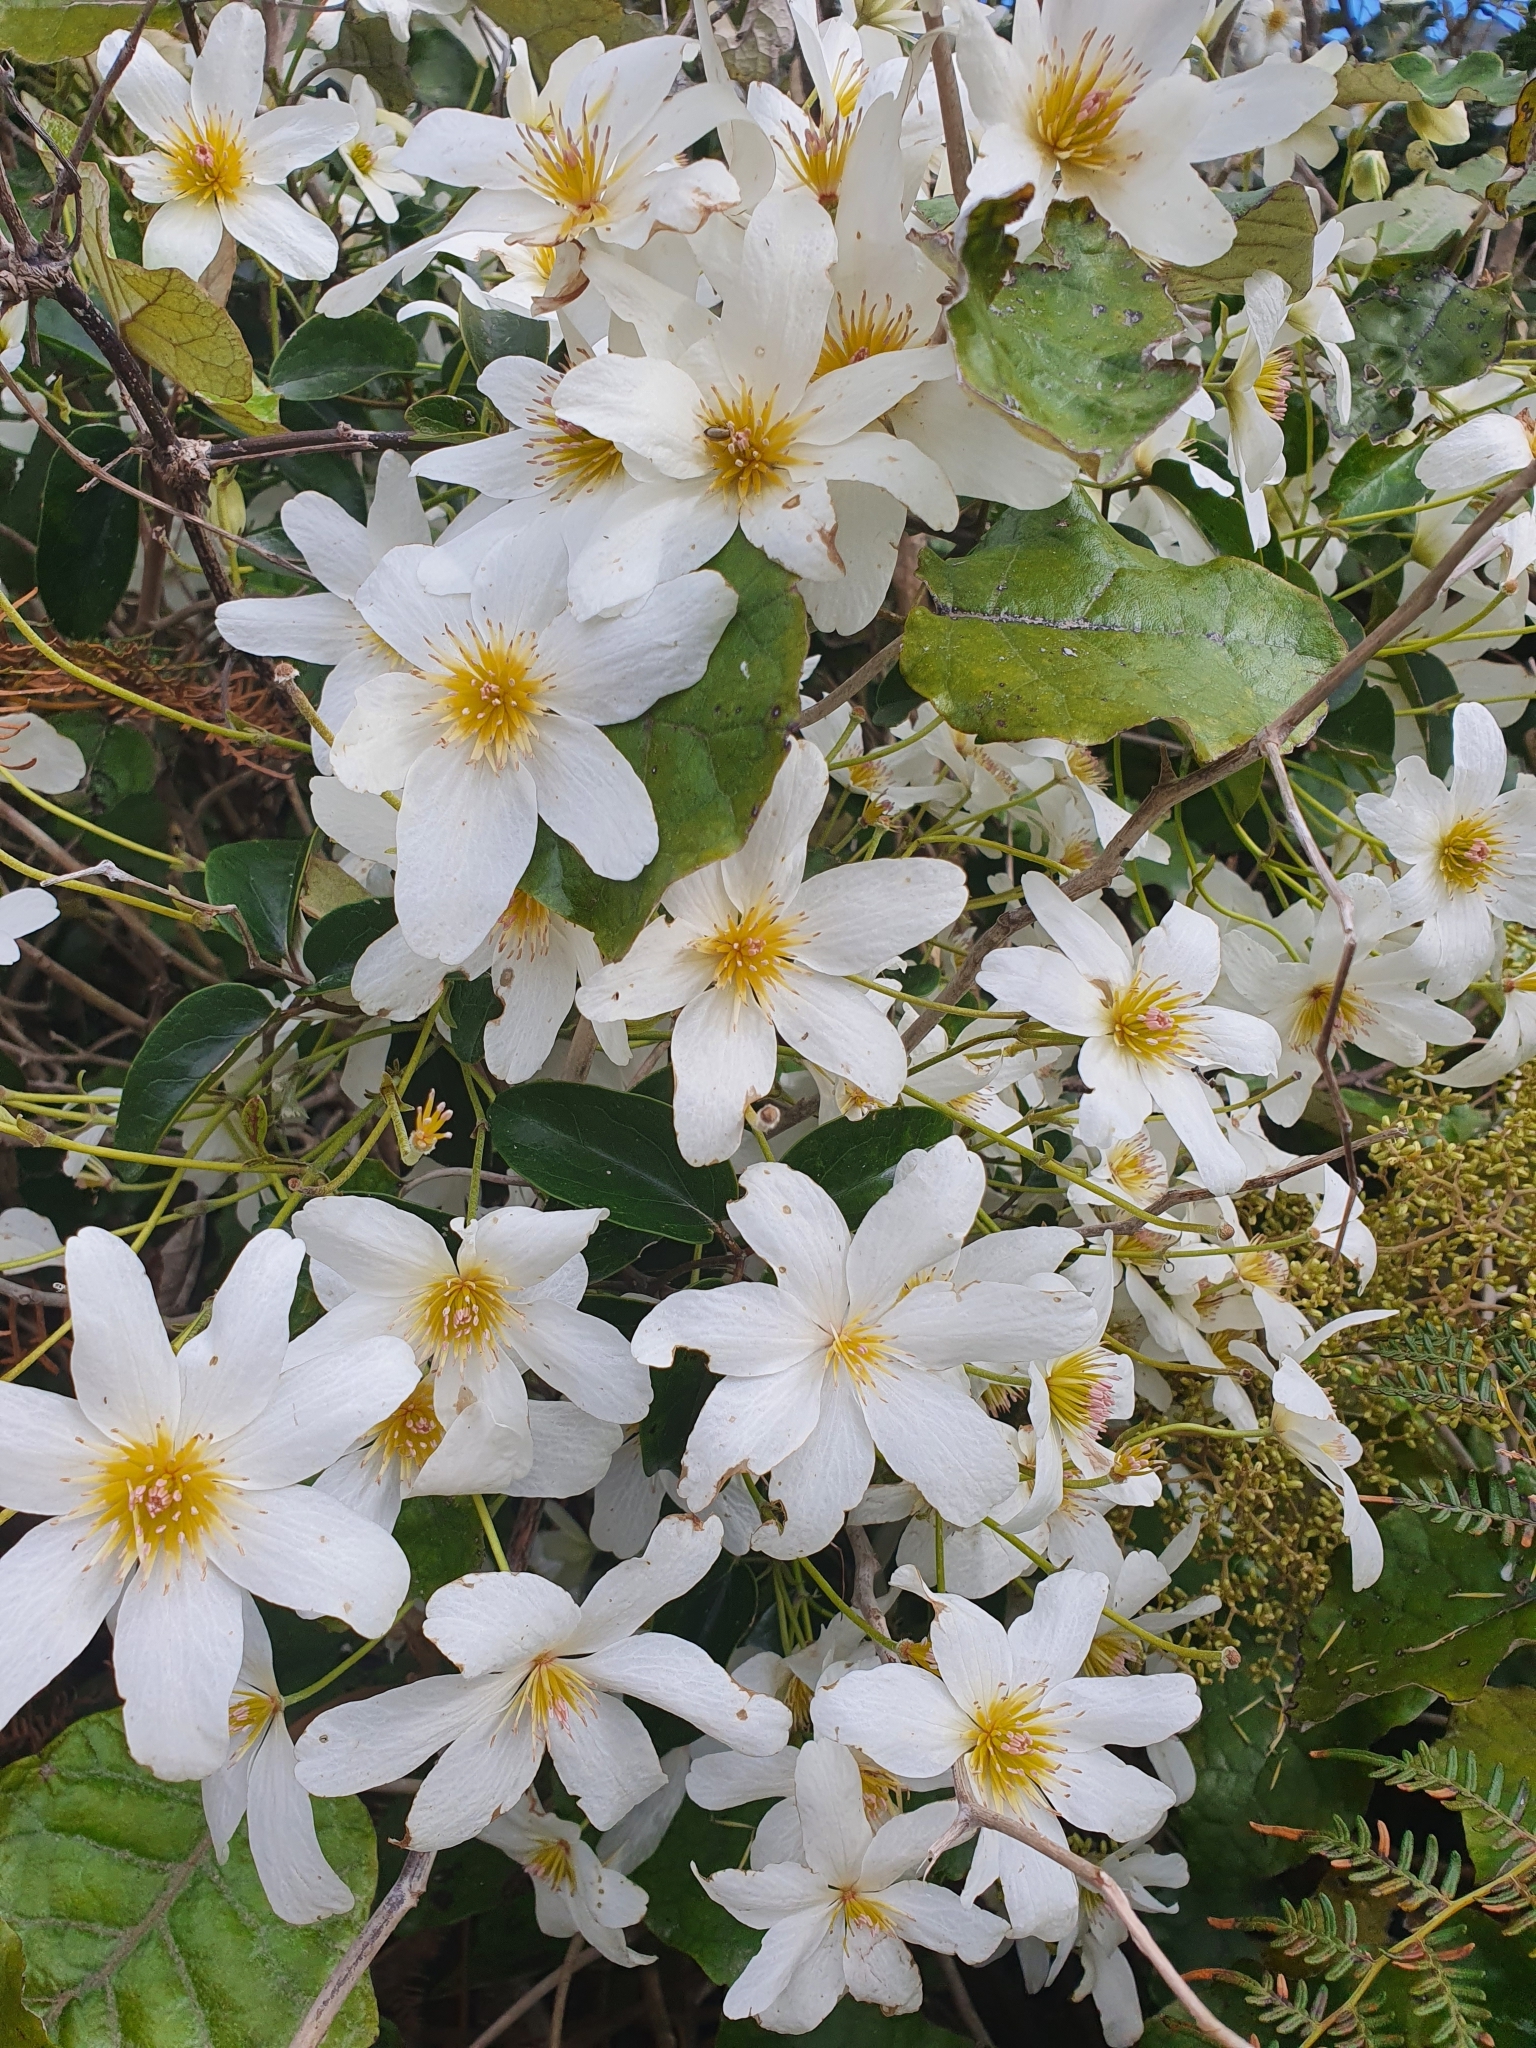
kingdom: Plantae
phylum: Tracheophyta
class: Magnoliopsida
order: Ranunculales
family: Ranunculaceae
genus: Clematis
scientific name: Clematis paniculata
